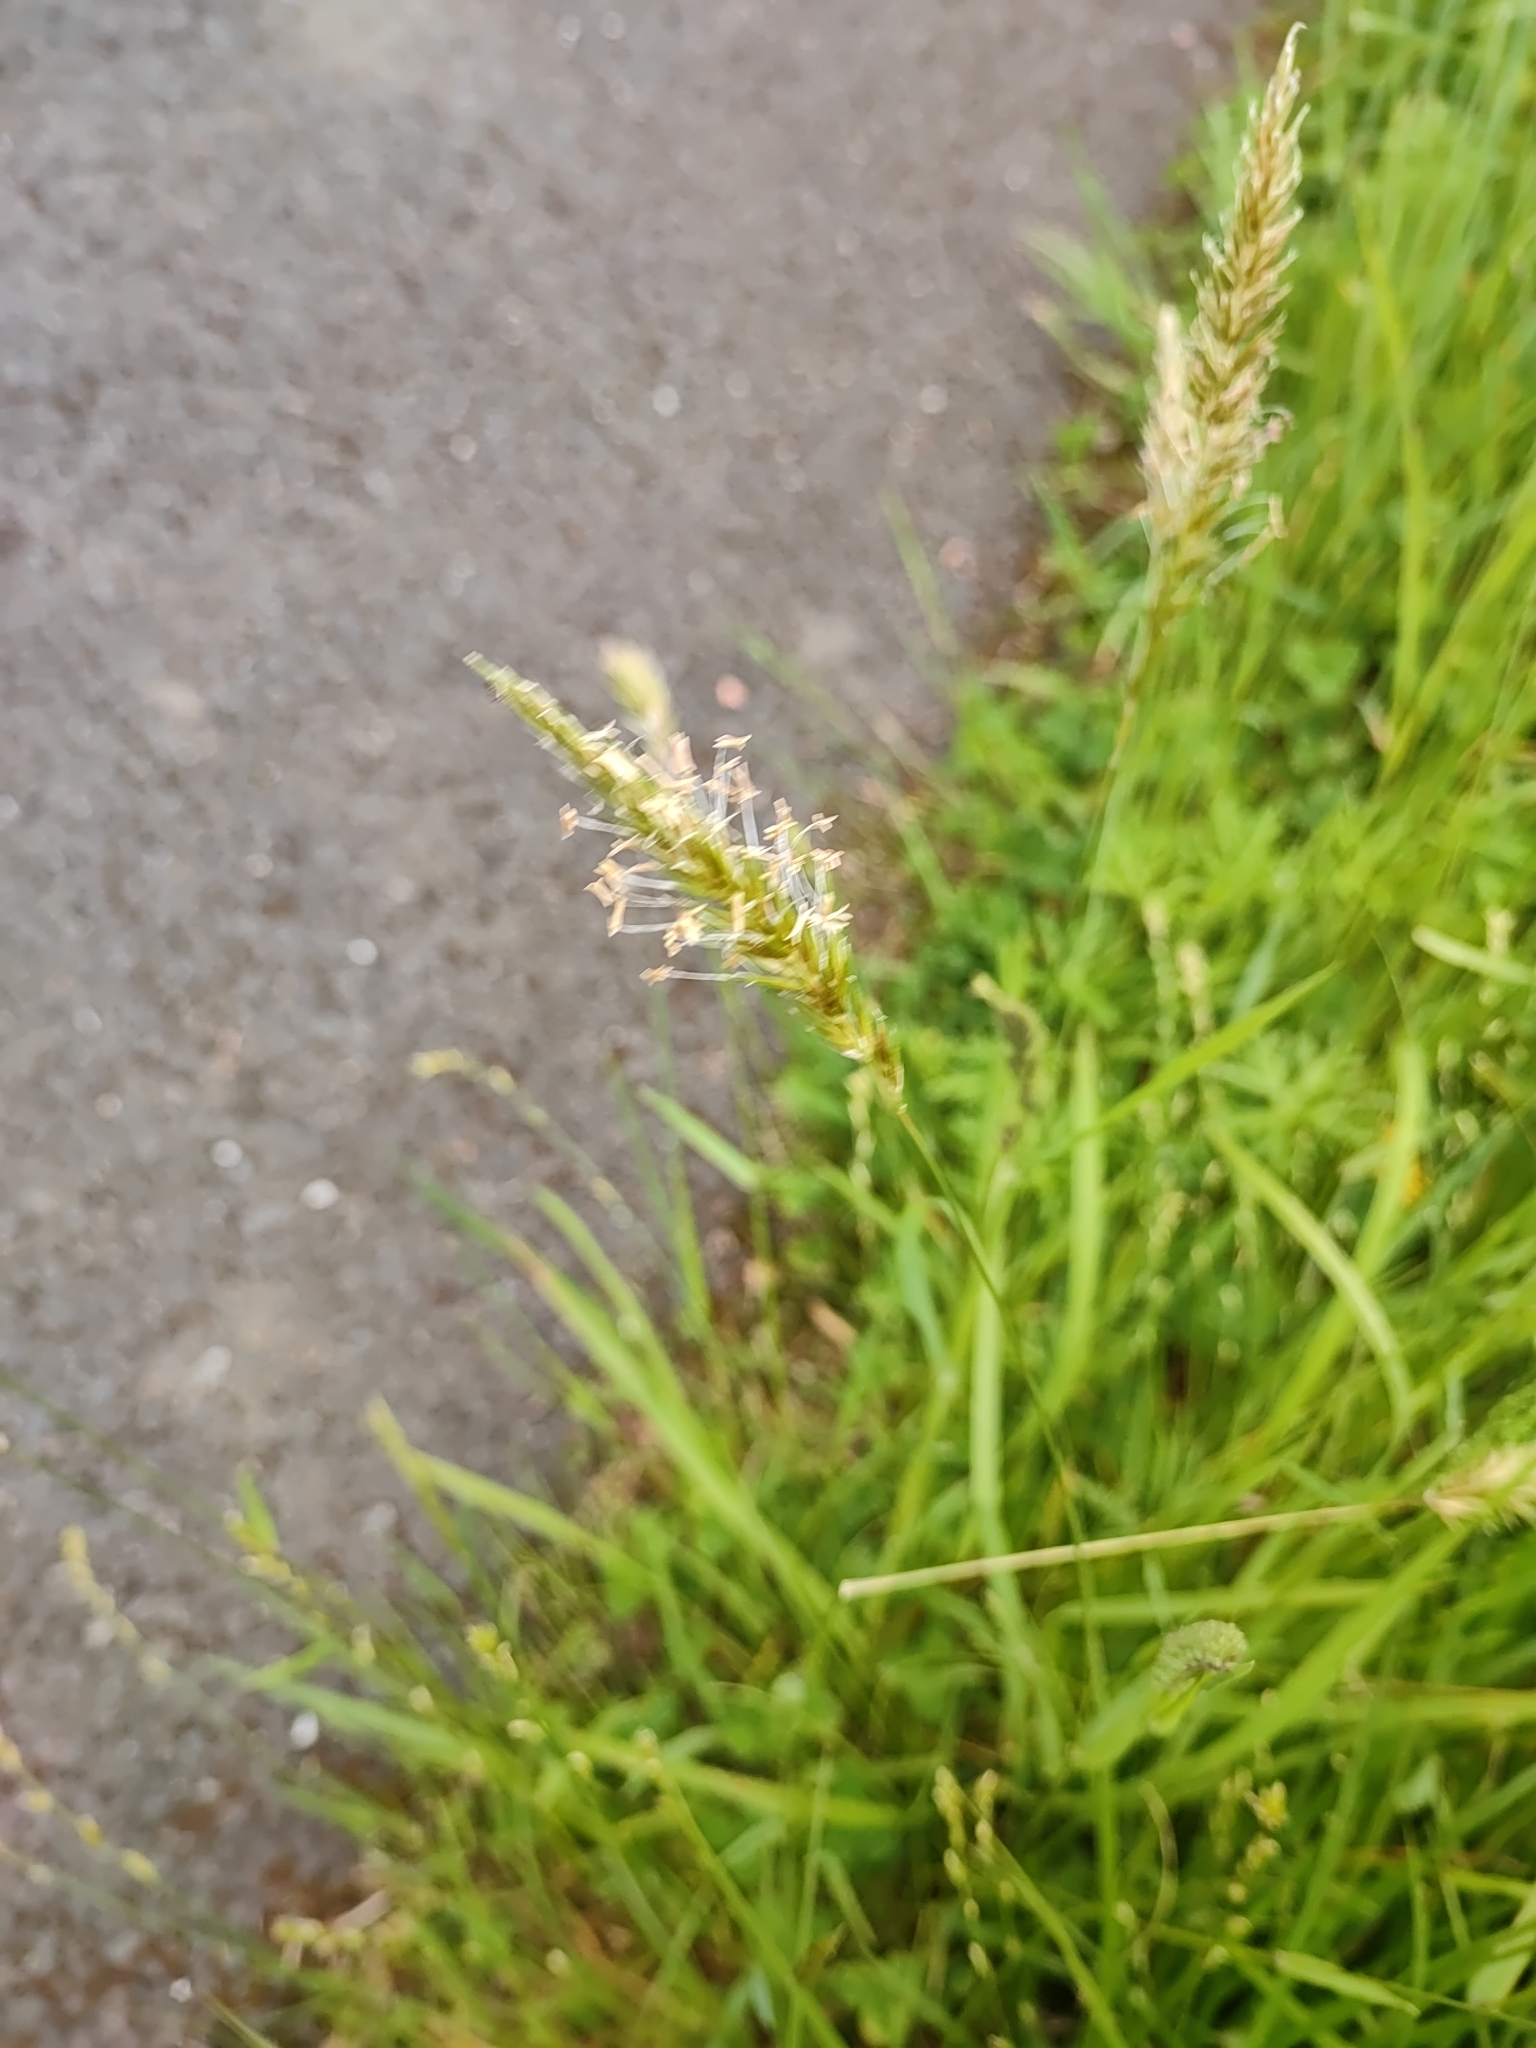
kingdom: Plantae
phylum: Tracheophyta
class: Liliopsida
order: Poales
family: Poaceae
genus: Anthoxanthum
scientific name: Anthoxanthum odoratum
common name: Sweet vernalgrass
